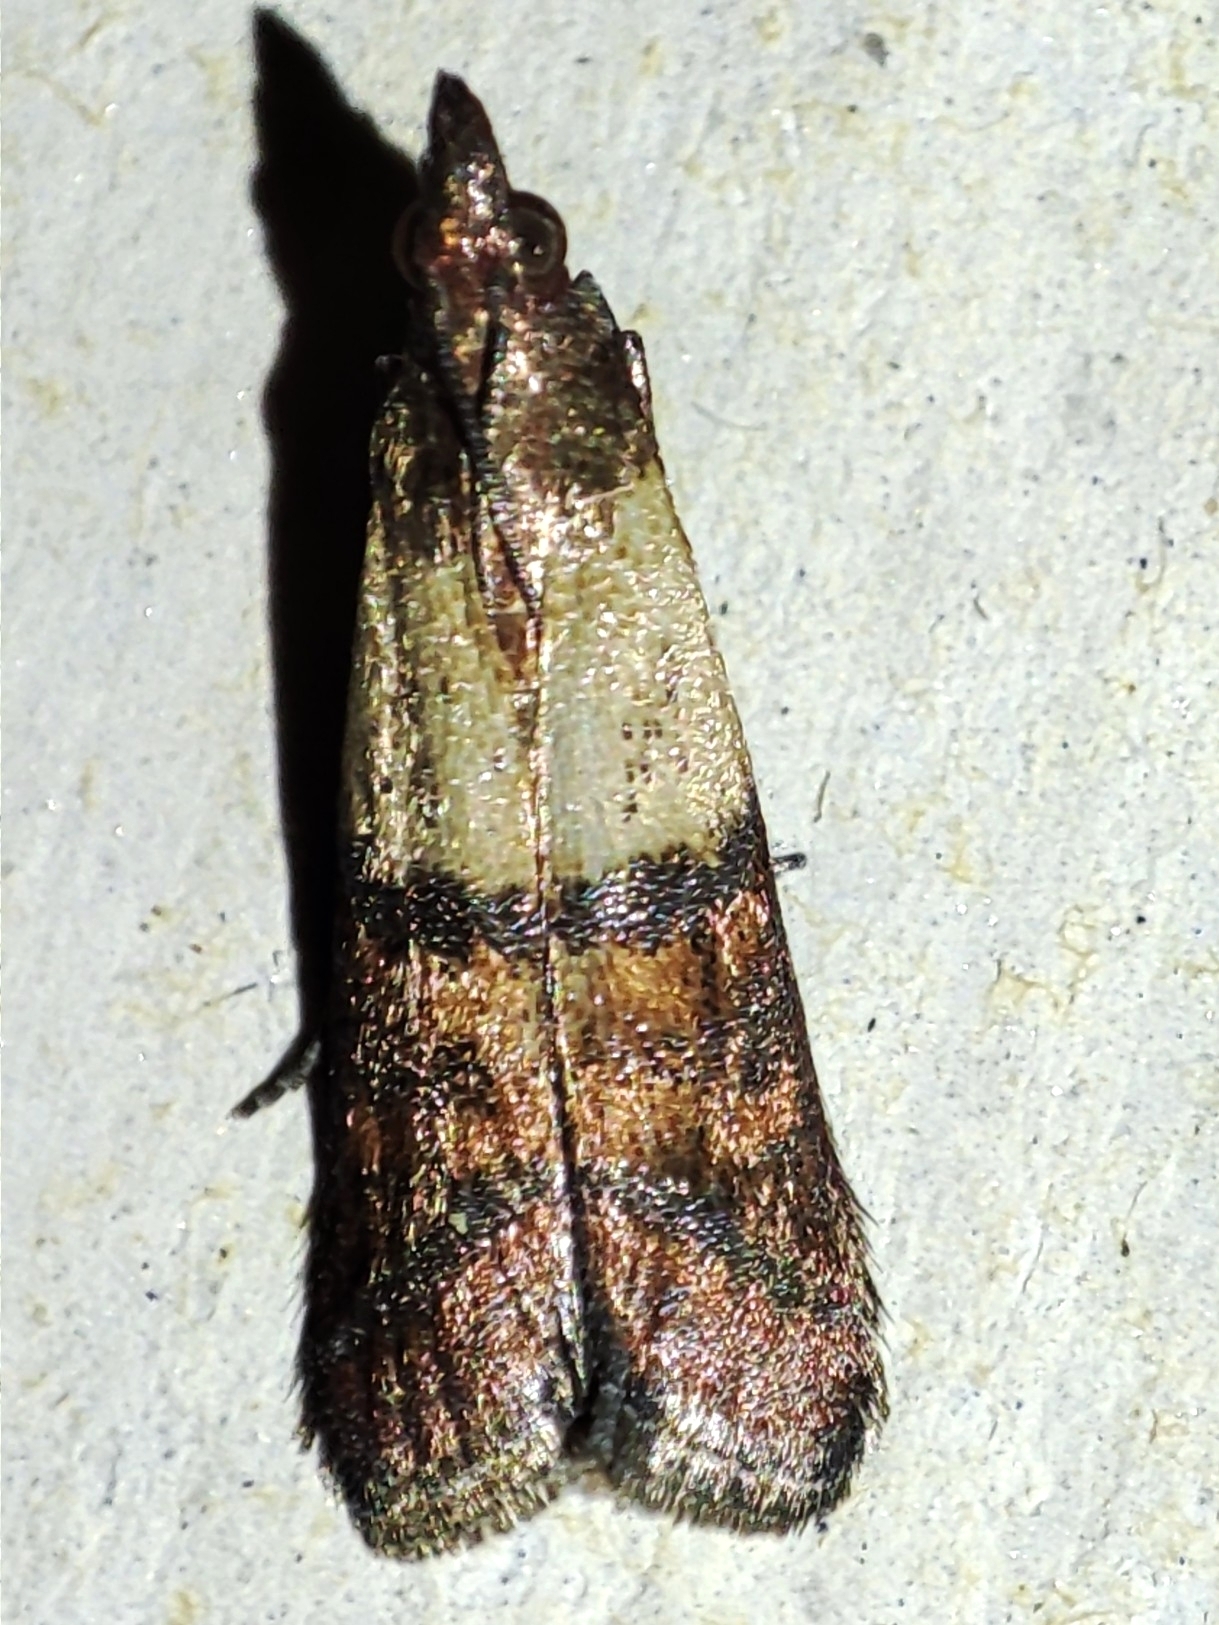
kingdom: Animalia
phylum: Arthropoda
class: Insecta
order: Lepidoptera
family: Pyralidae
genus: Plodia
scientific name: Plodia interpunctella
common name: Indian meal moth
